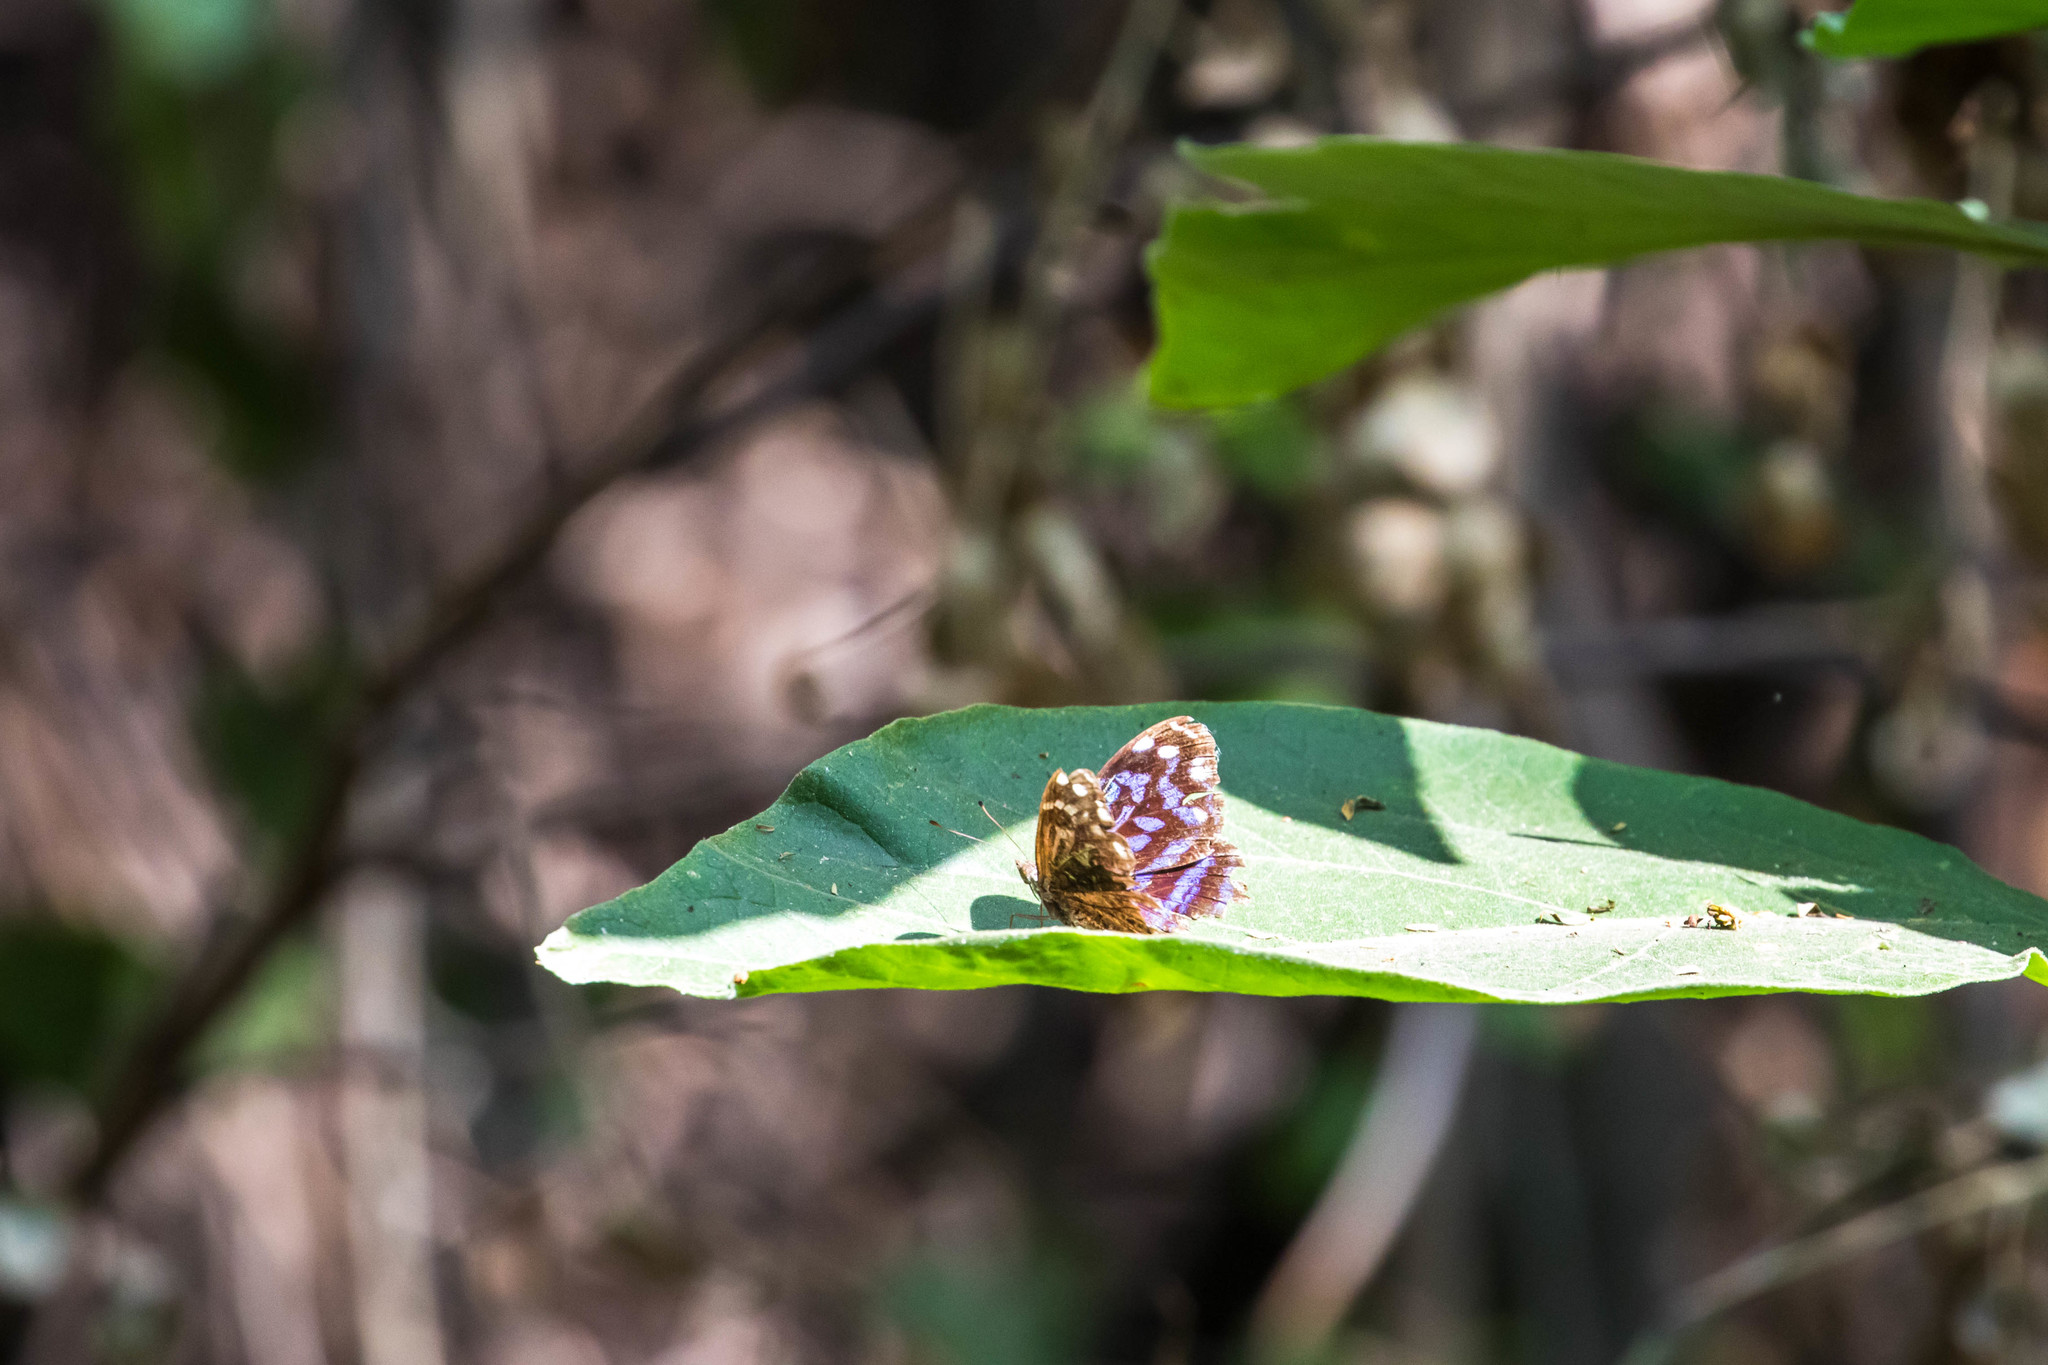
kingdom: Animalia
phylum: Arthropoda
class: Insecta
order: Lepidoptera
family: Nymphalidae
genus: Myscelia
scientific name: Myscelia ethusa
